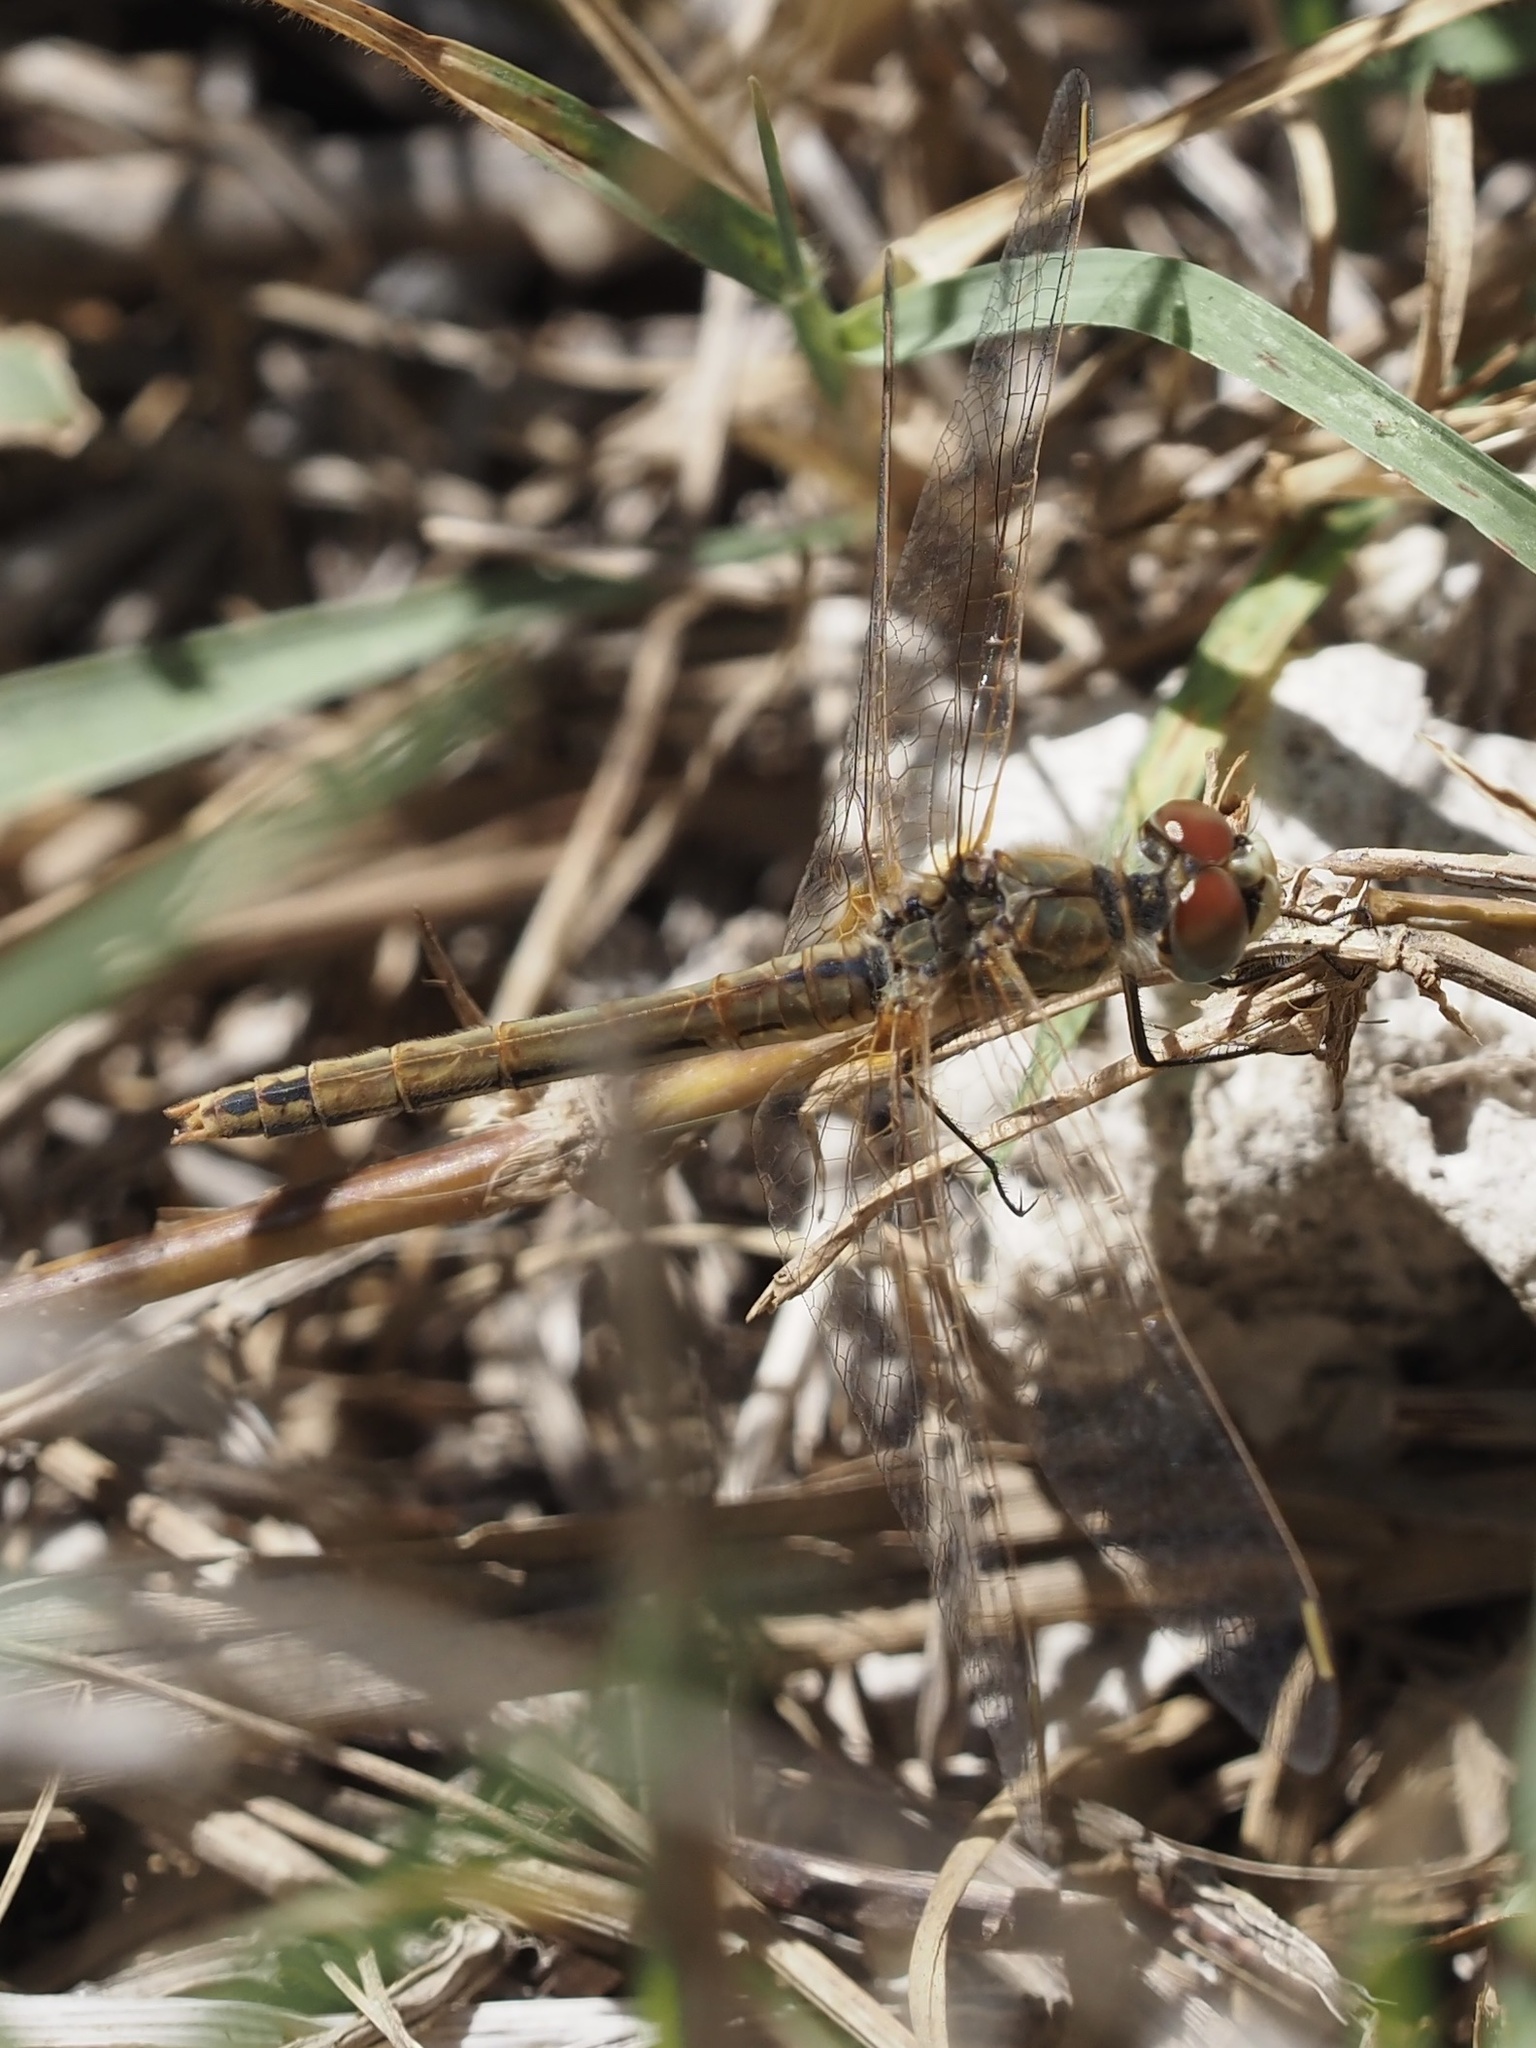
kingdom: Animalia
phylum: Arthropoda
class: Insecta
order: Odonata
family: Libellulidae
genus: Sympetrum
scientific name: Sympetrum fonscolombii
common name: Red-veined darter
